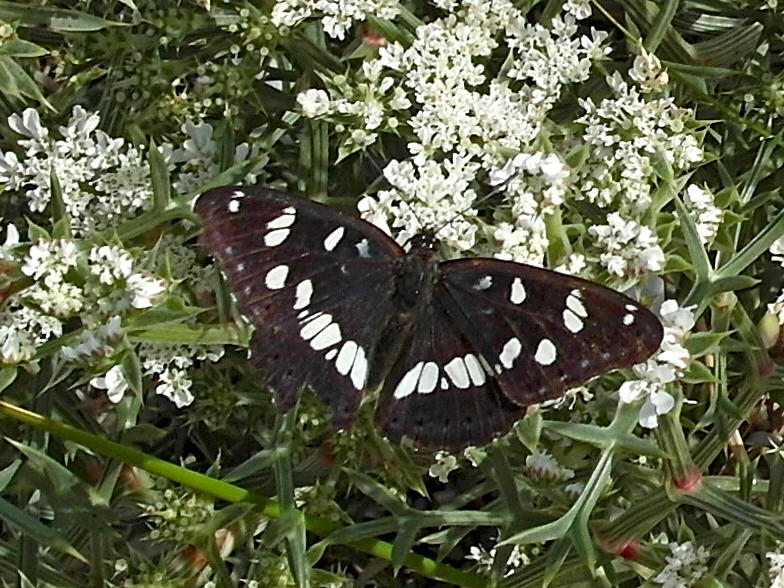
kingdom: Animalia
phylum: Arthropoda
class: Insecta
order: Lepidoptera
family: Nymphalidae
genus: Limenitis
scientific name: Limenitis reducta
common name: Southern white admiral
